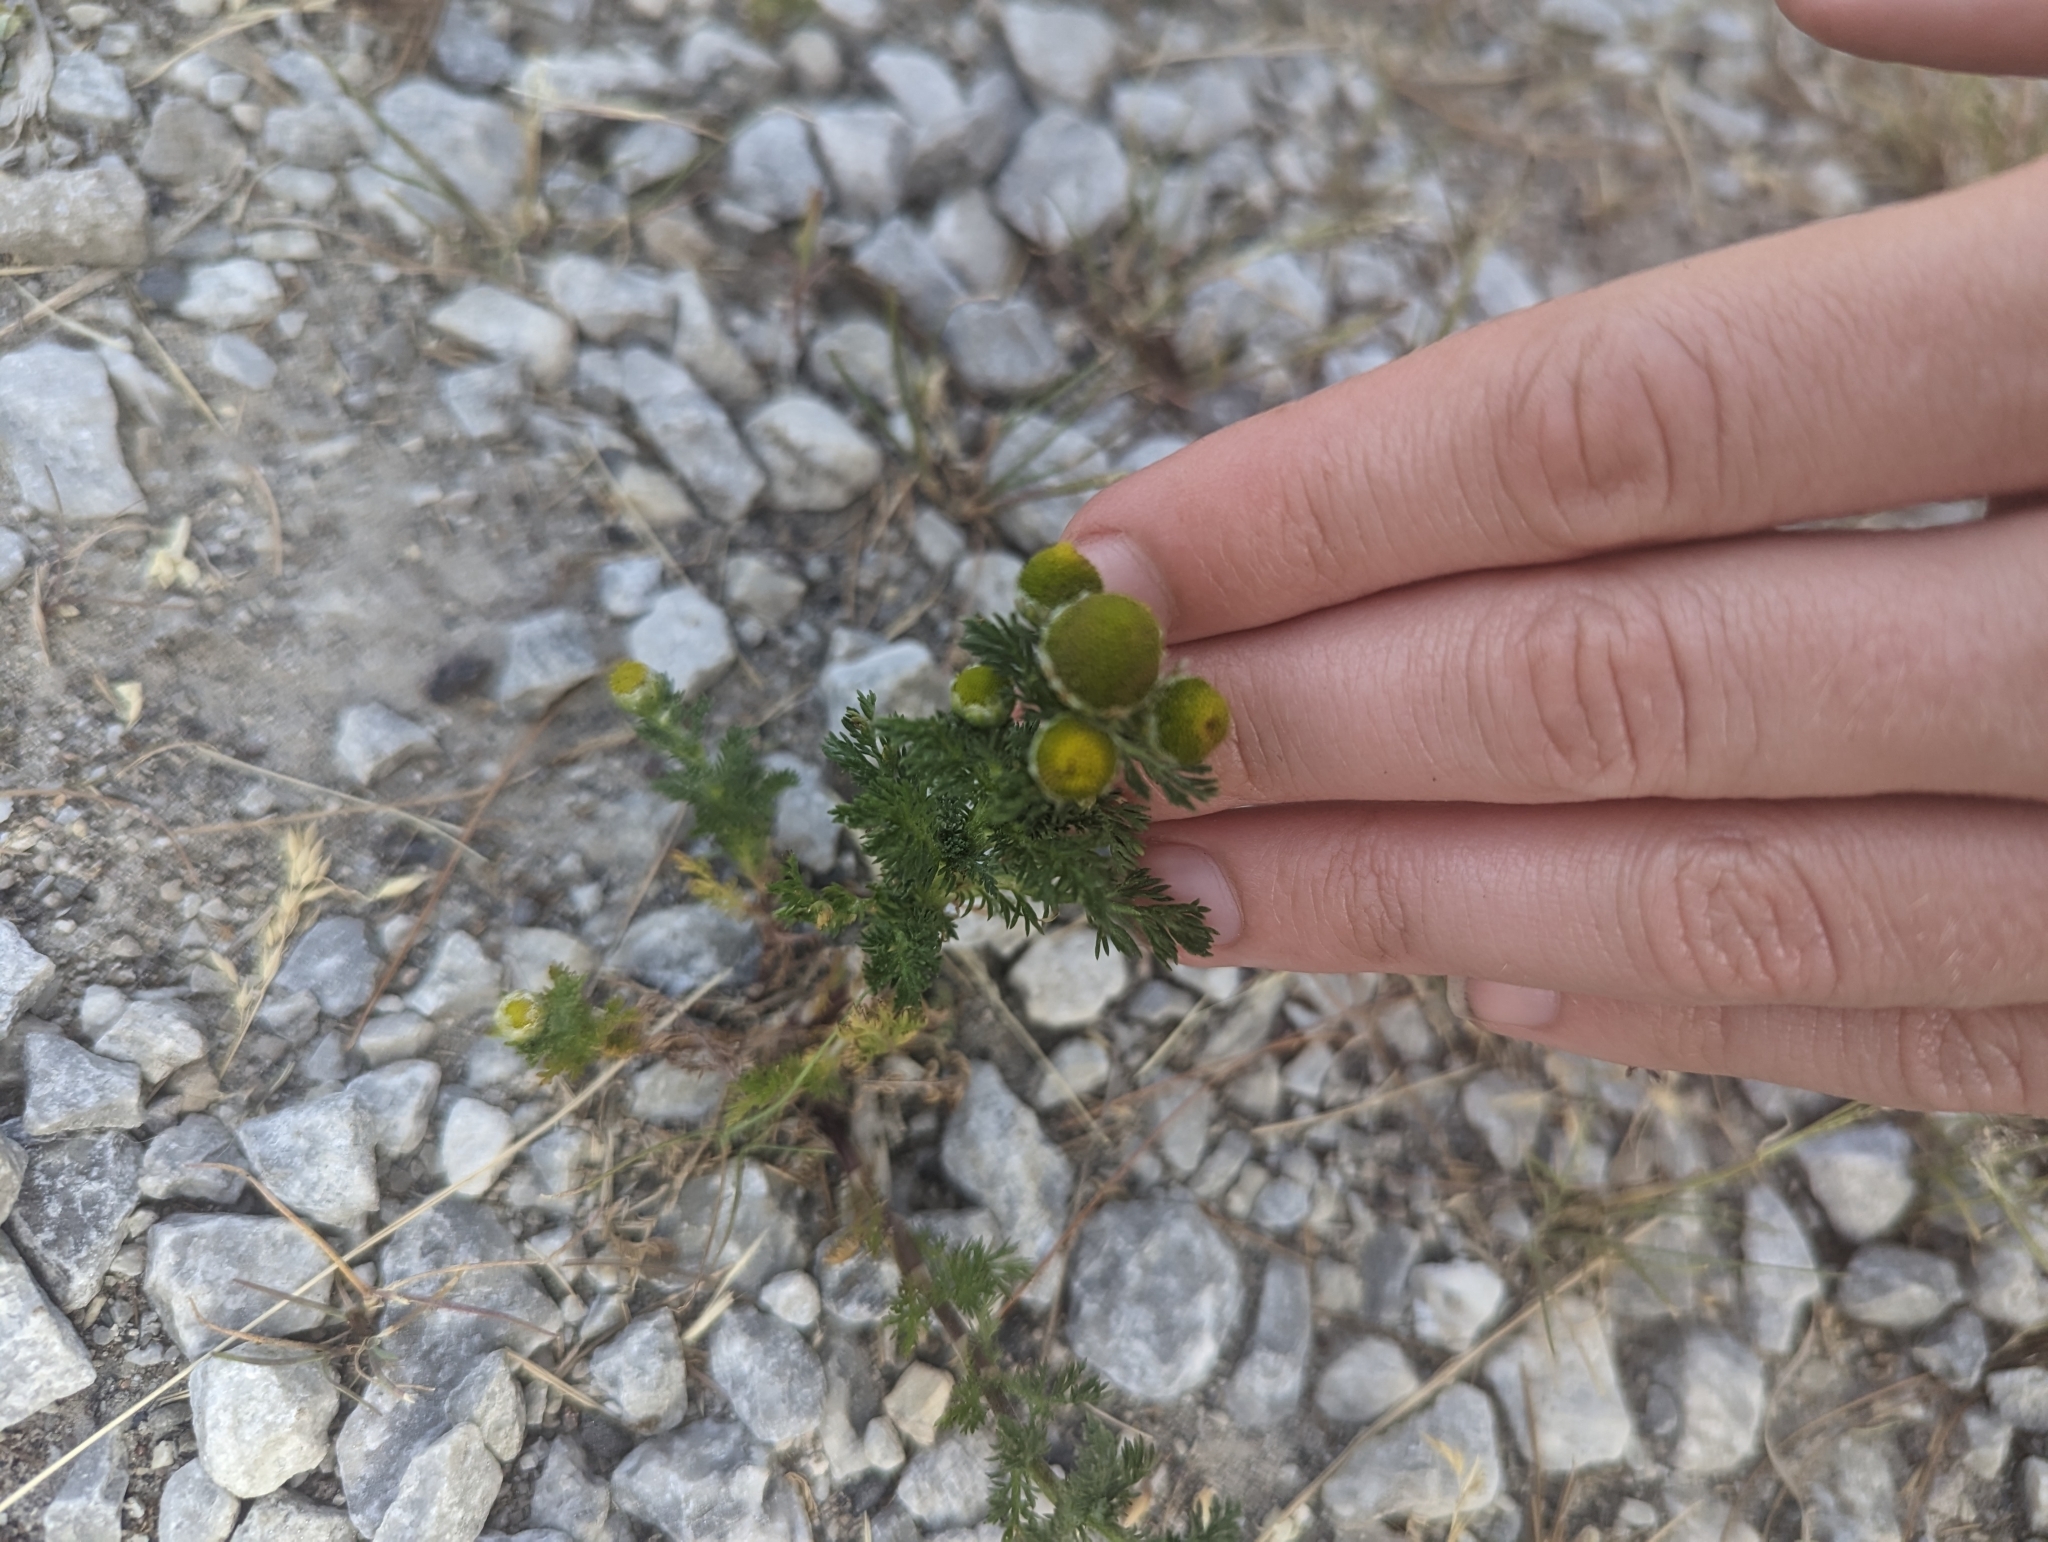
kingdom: Plantae
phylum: Tracheophyta
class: Magnoliopsida
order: Asterales
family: Asteraceae
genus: Matricaria
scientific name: Matricaria discoidea
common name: Disc mayweed
